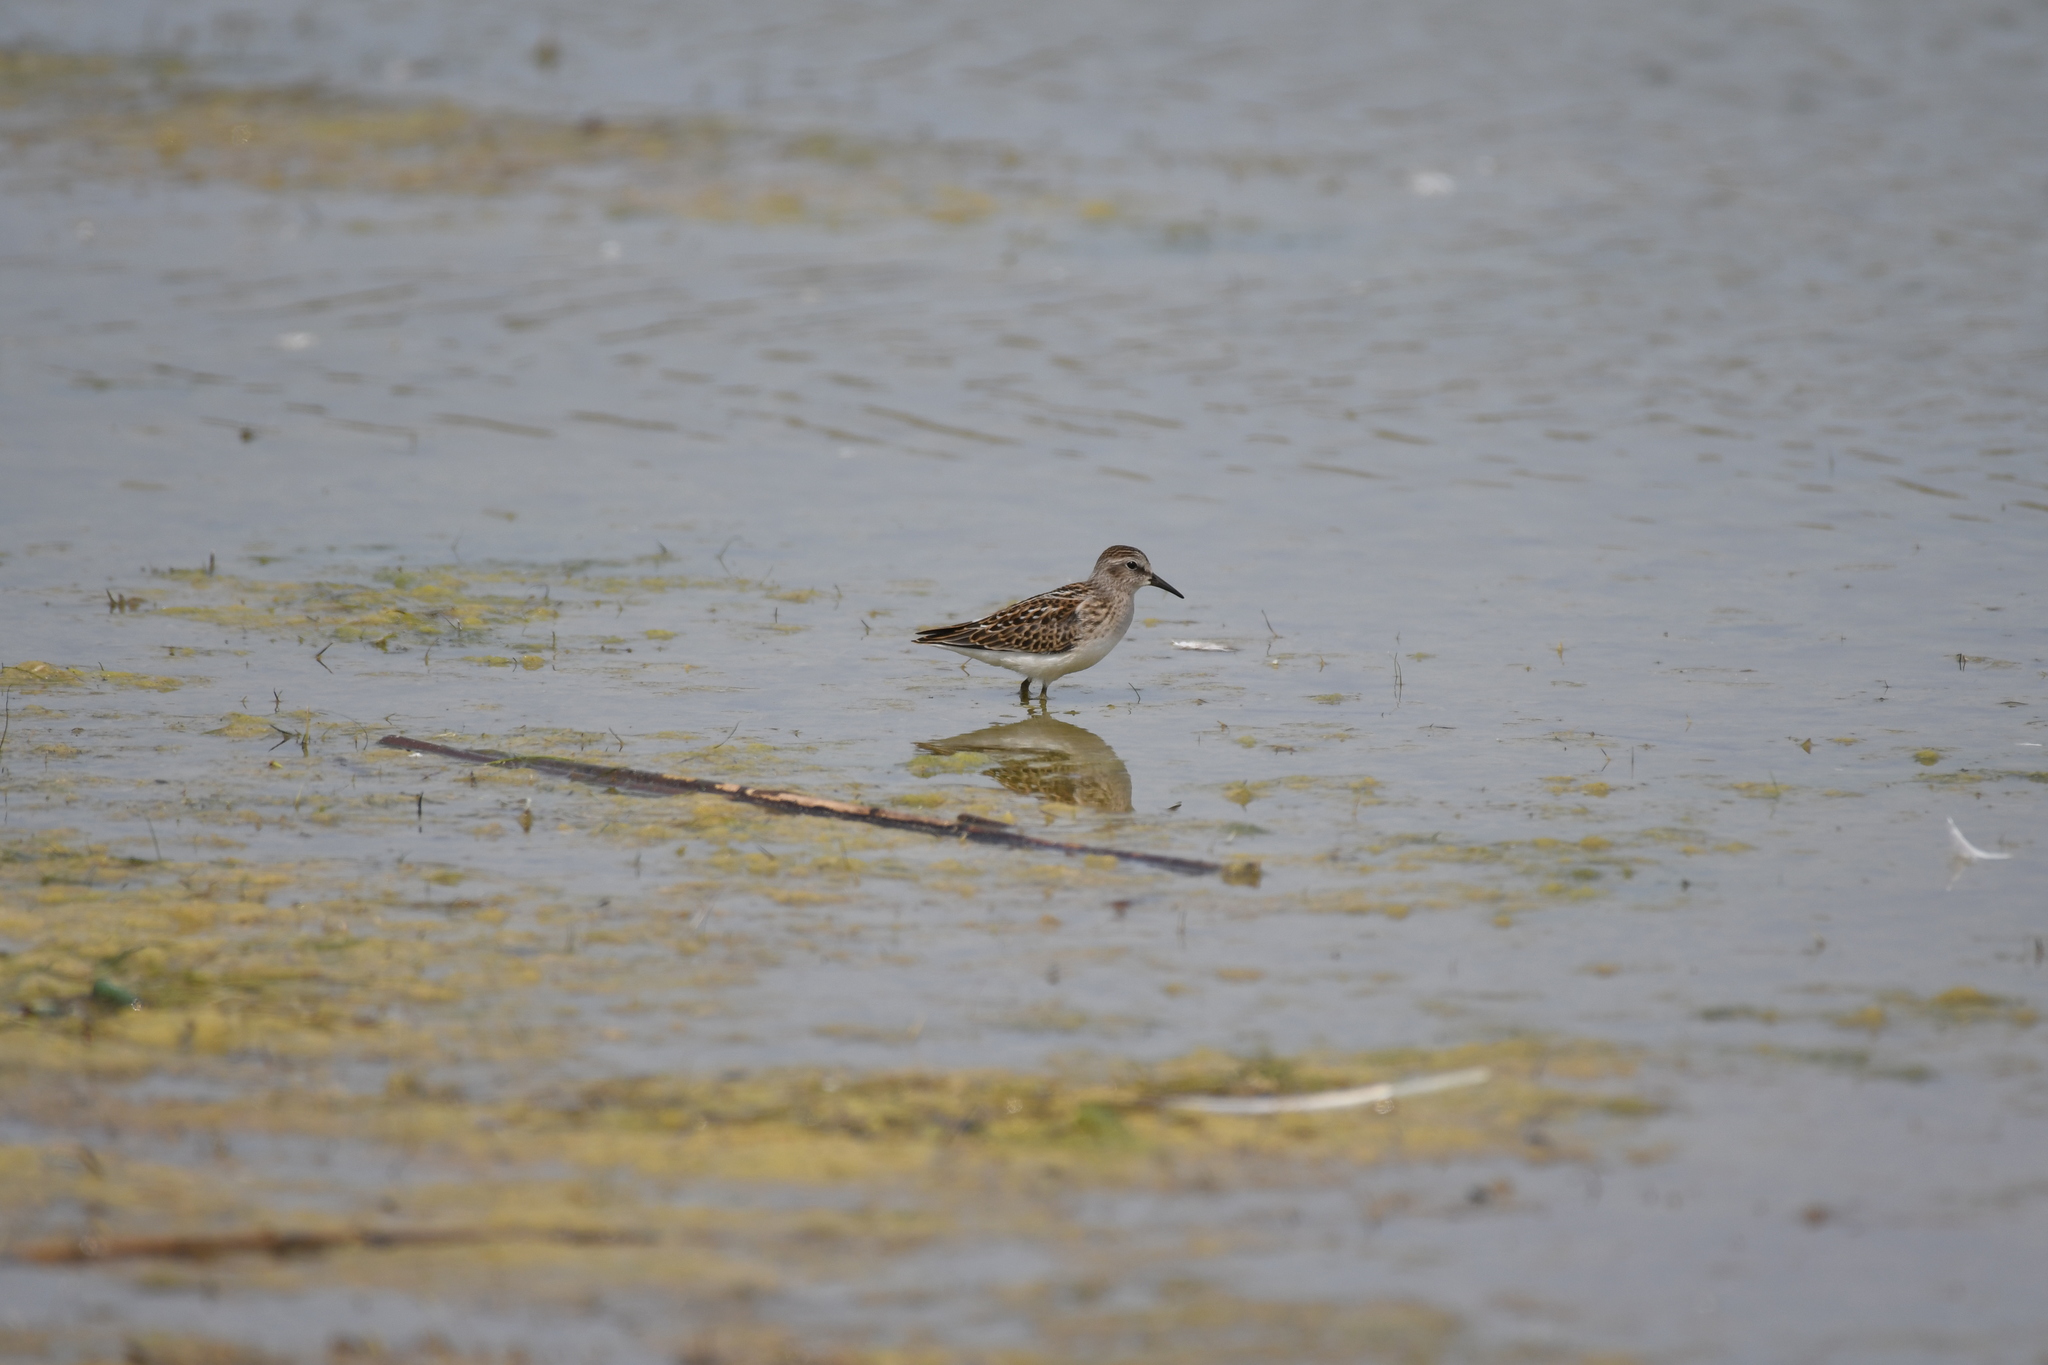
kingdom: Animalia
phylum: Chordata
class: Aves
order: Charadriiformes
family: Scolopacidae
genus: Calidris
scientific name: Calidris minutilla
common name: Least sandpiper
